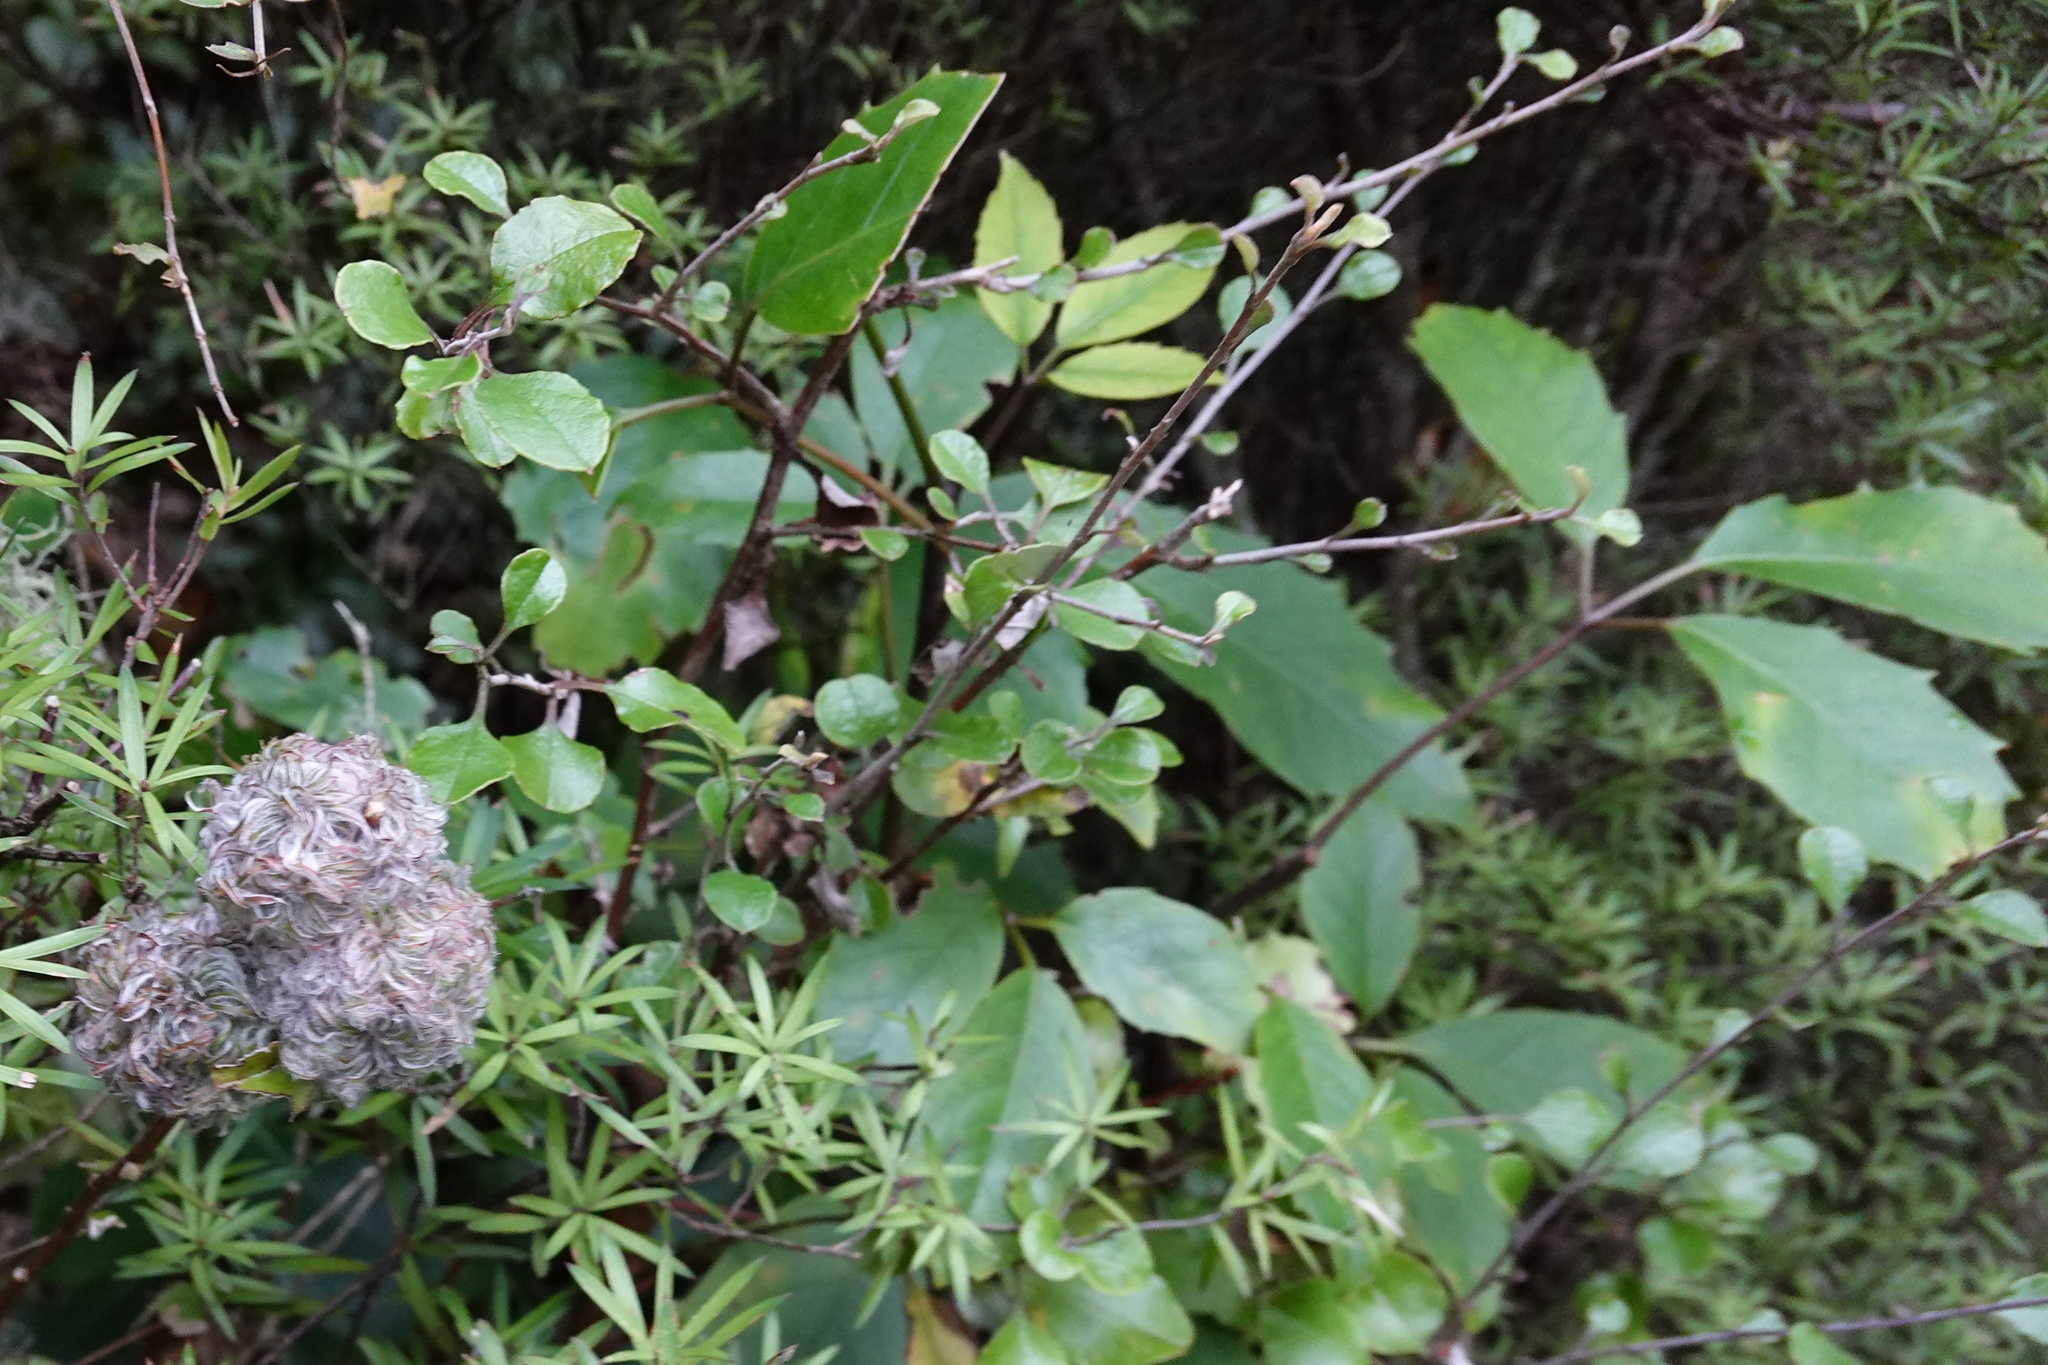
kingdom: Plantae
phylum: Tracheophyta
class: Magnoliopsida
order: Asterales
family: Asteraceae
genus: Ozothamnus
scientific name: Ozothamnus glomeratus
